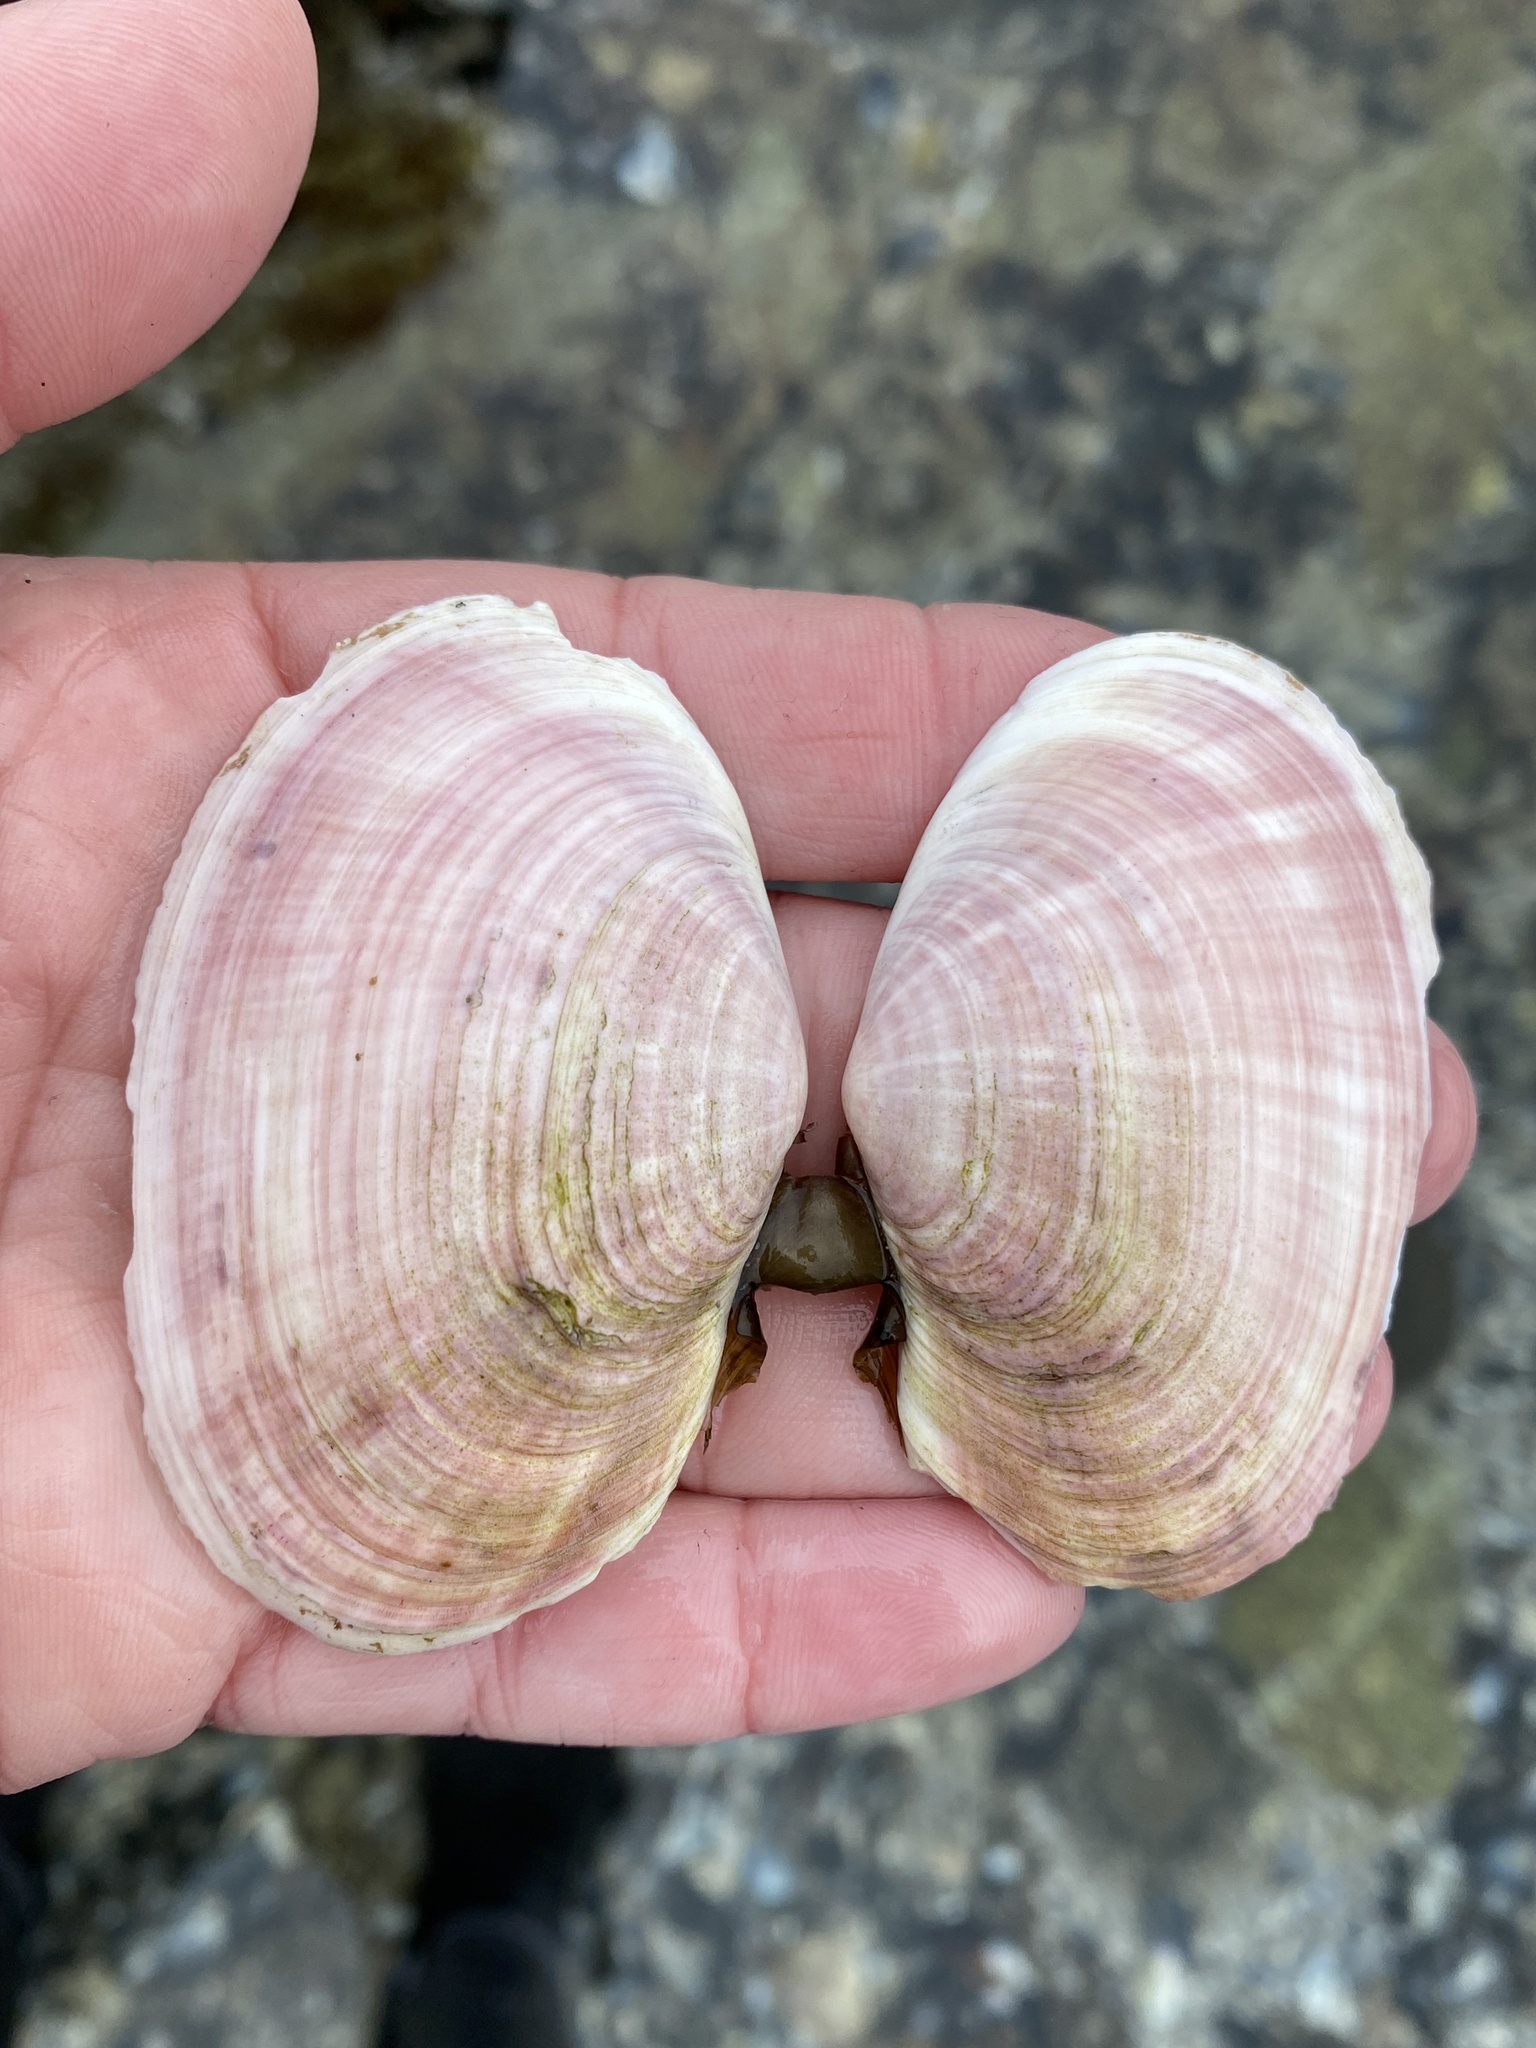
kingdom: Animalia
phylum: Mollusca
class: Bivalvia
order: Cardiida
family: Psammobiidae
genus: Gari
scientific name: Gari californica
